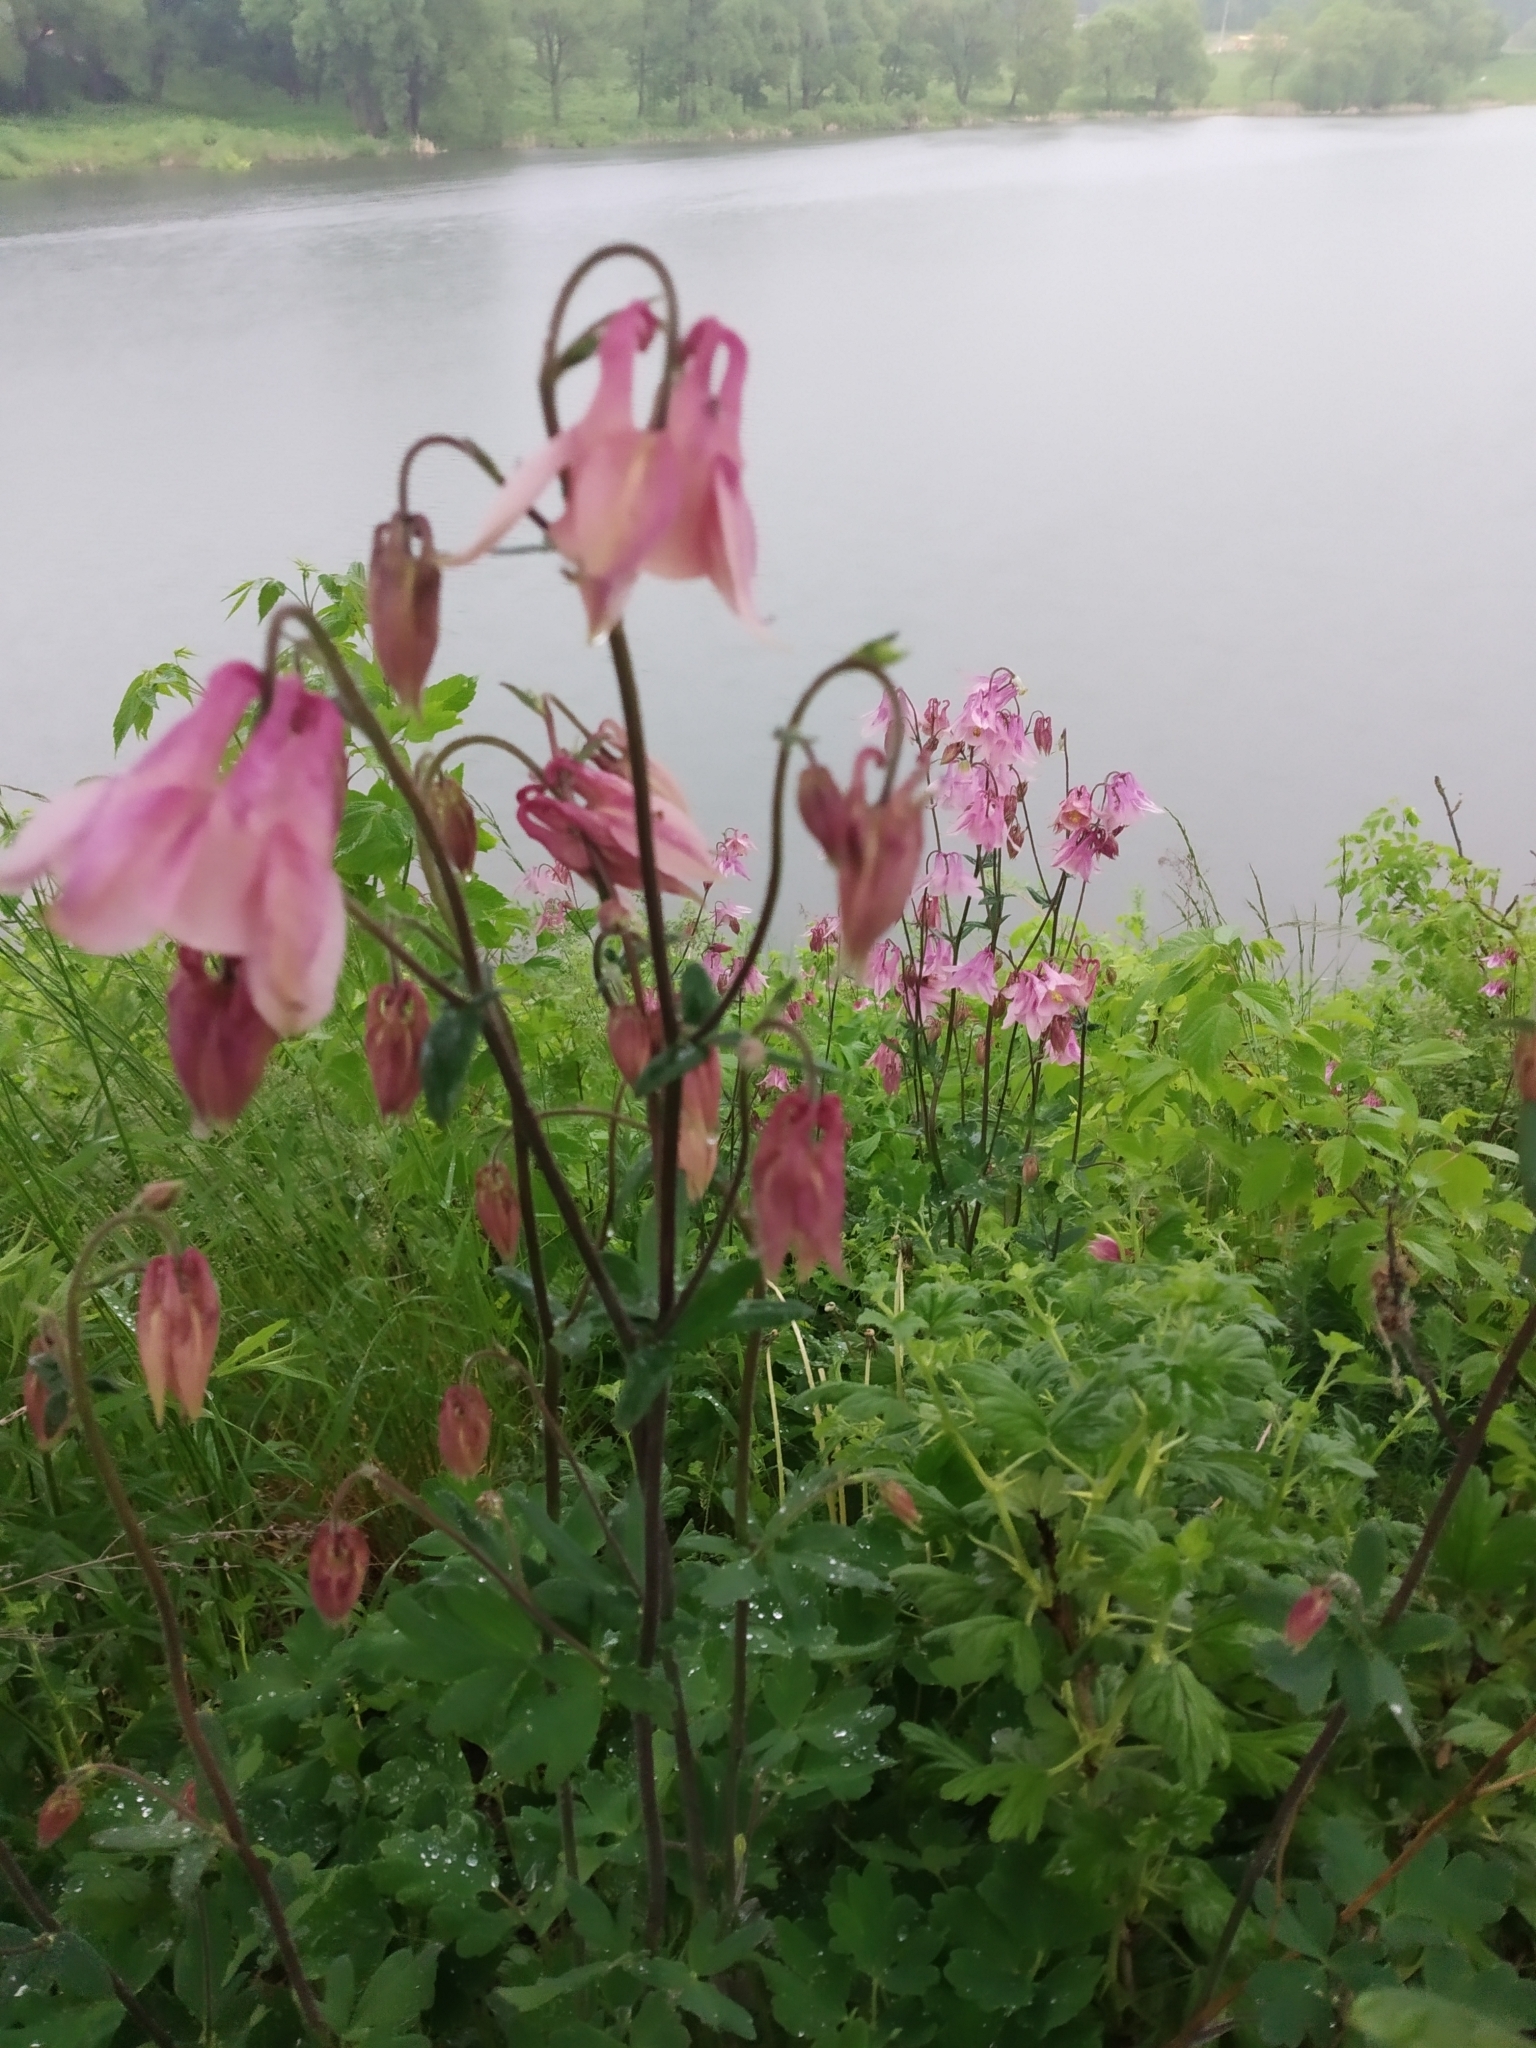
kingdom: Plantae
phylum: Tracheophyta
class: Magnoliopsida
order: Ranunculales
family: Ranunculaceae
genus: Aquilegia
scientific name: Aquilegia vulgaris
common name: Columbine
